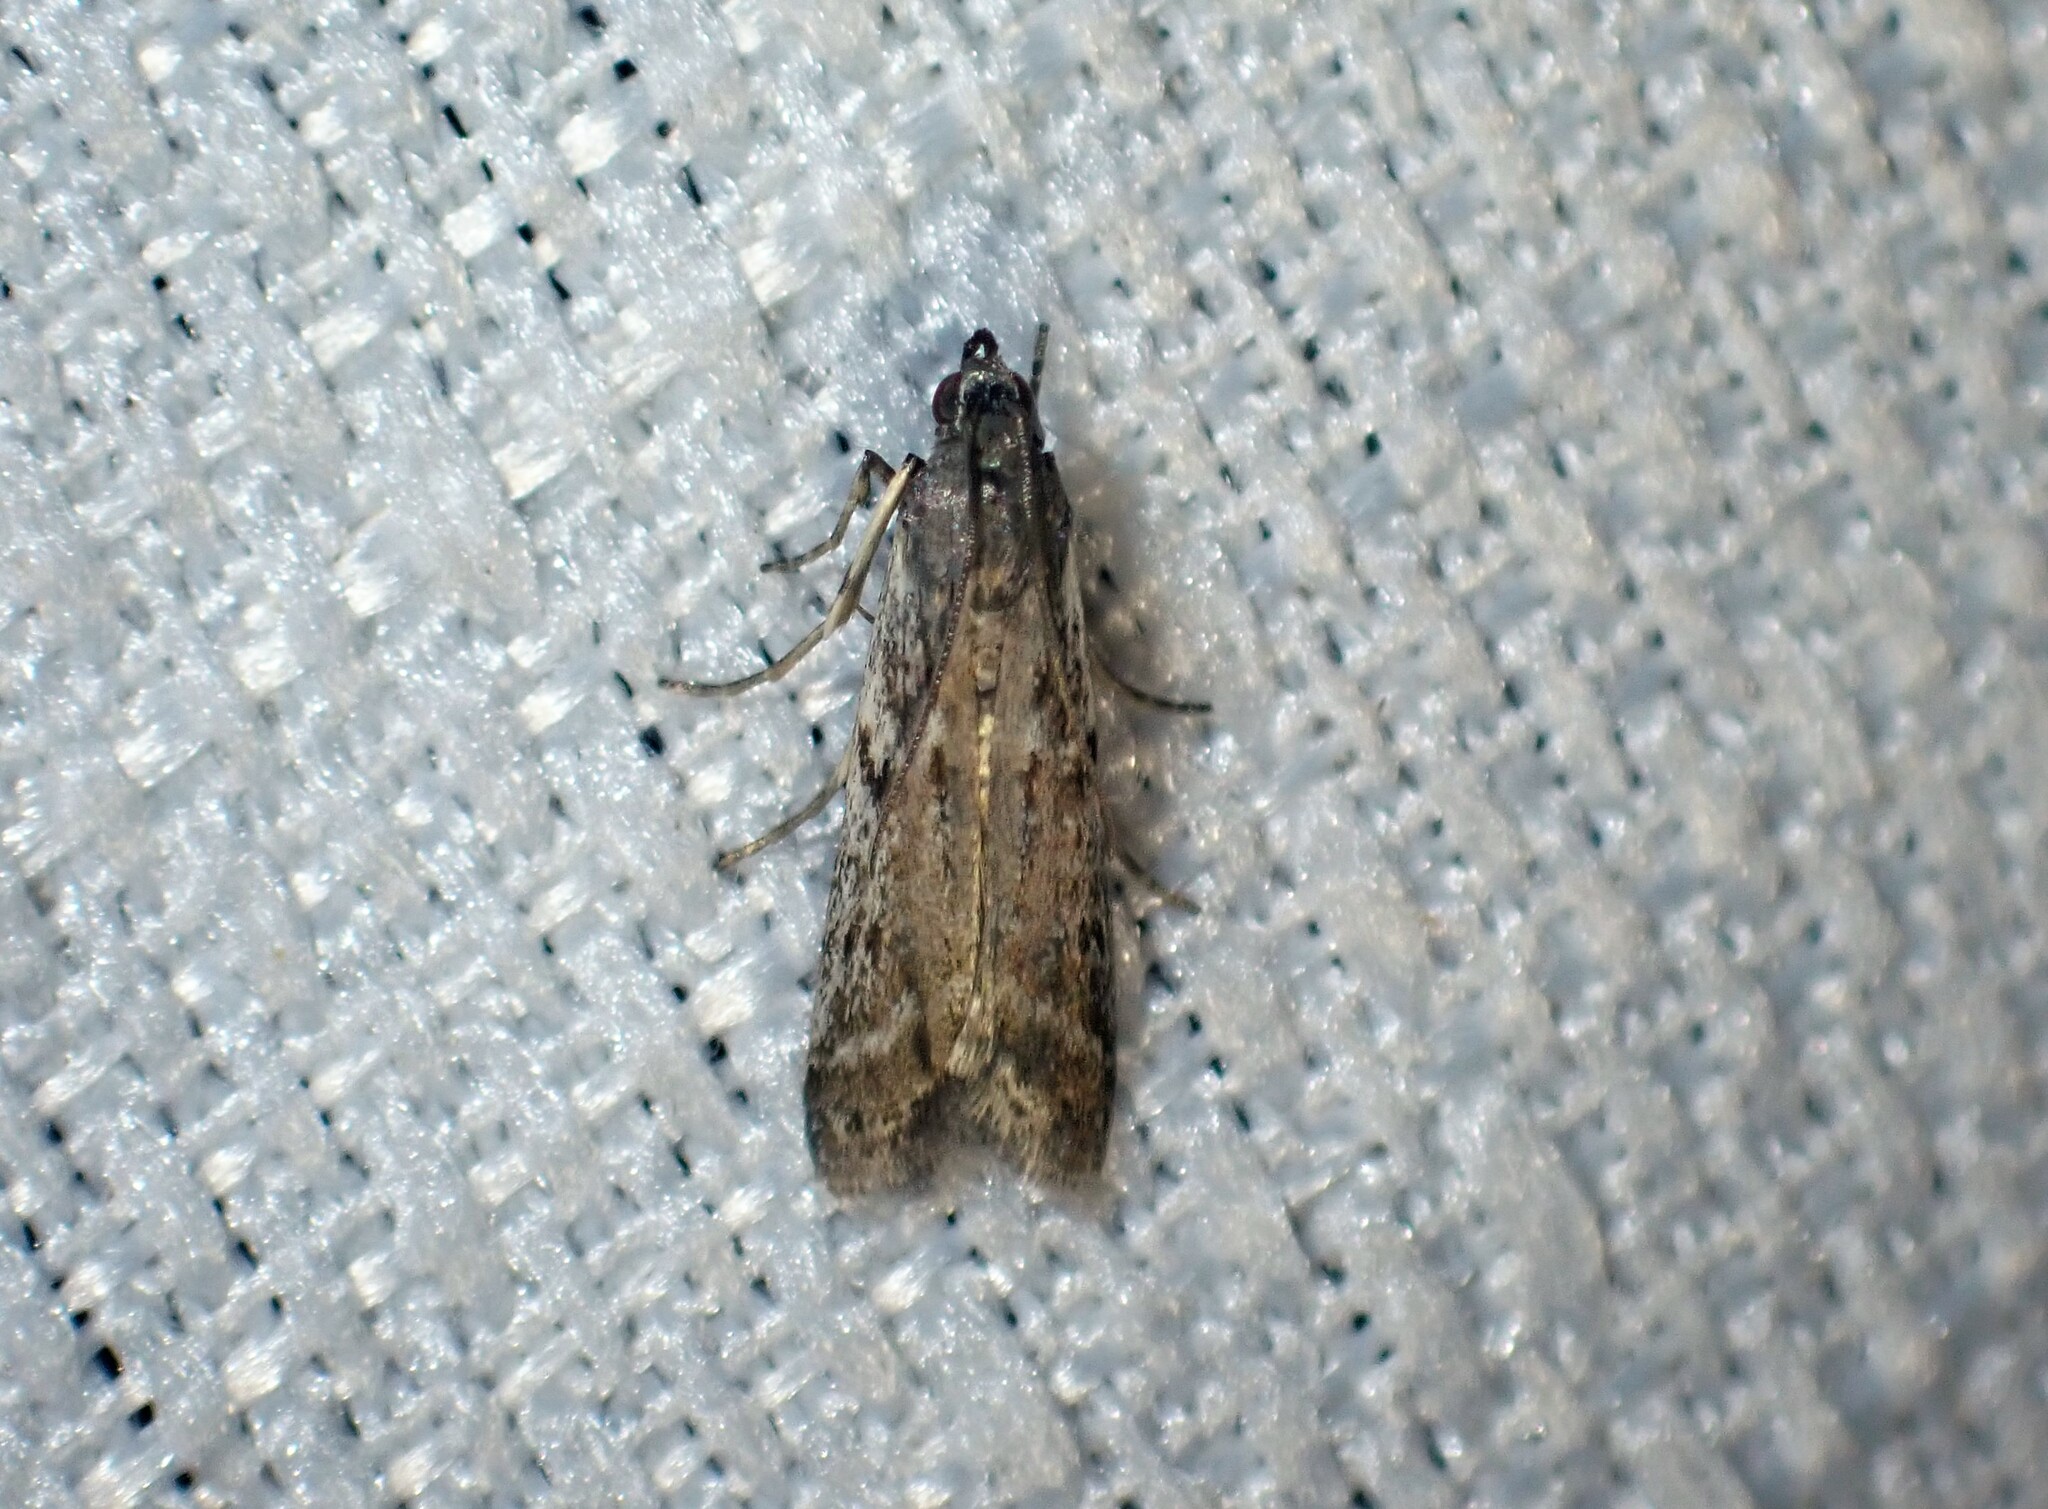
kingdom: Animalia
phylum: Arthropoda
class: Insecta
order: Lepidoptera
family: Pyralidae
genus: Phycitodes
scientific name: Phycitodes albatella
